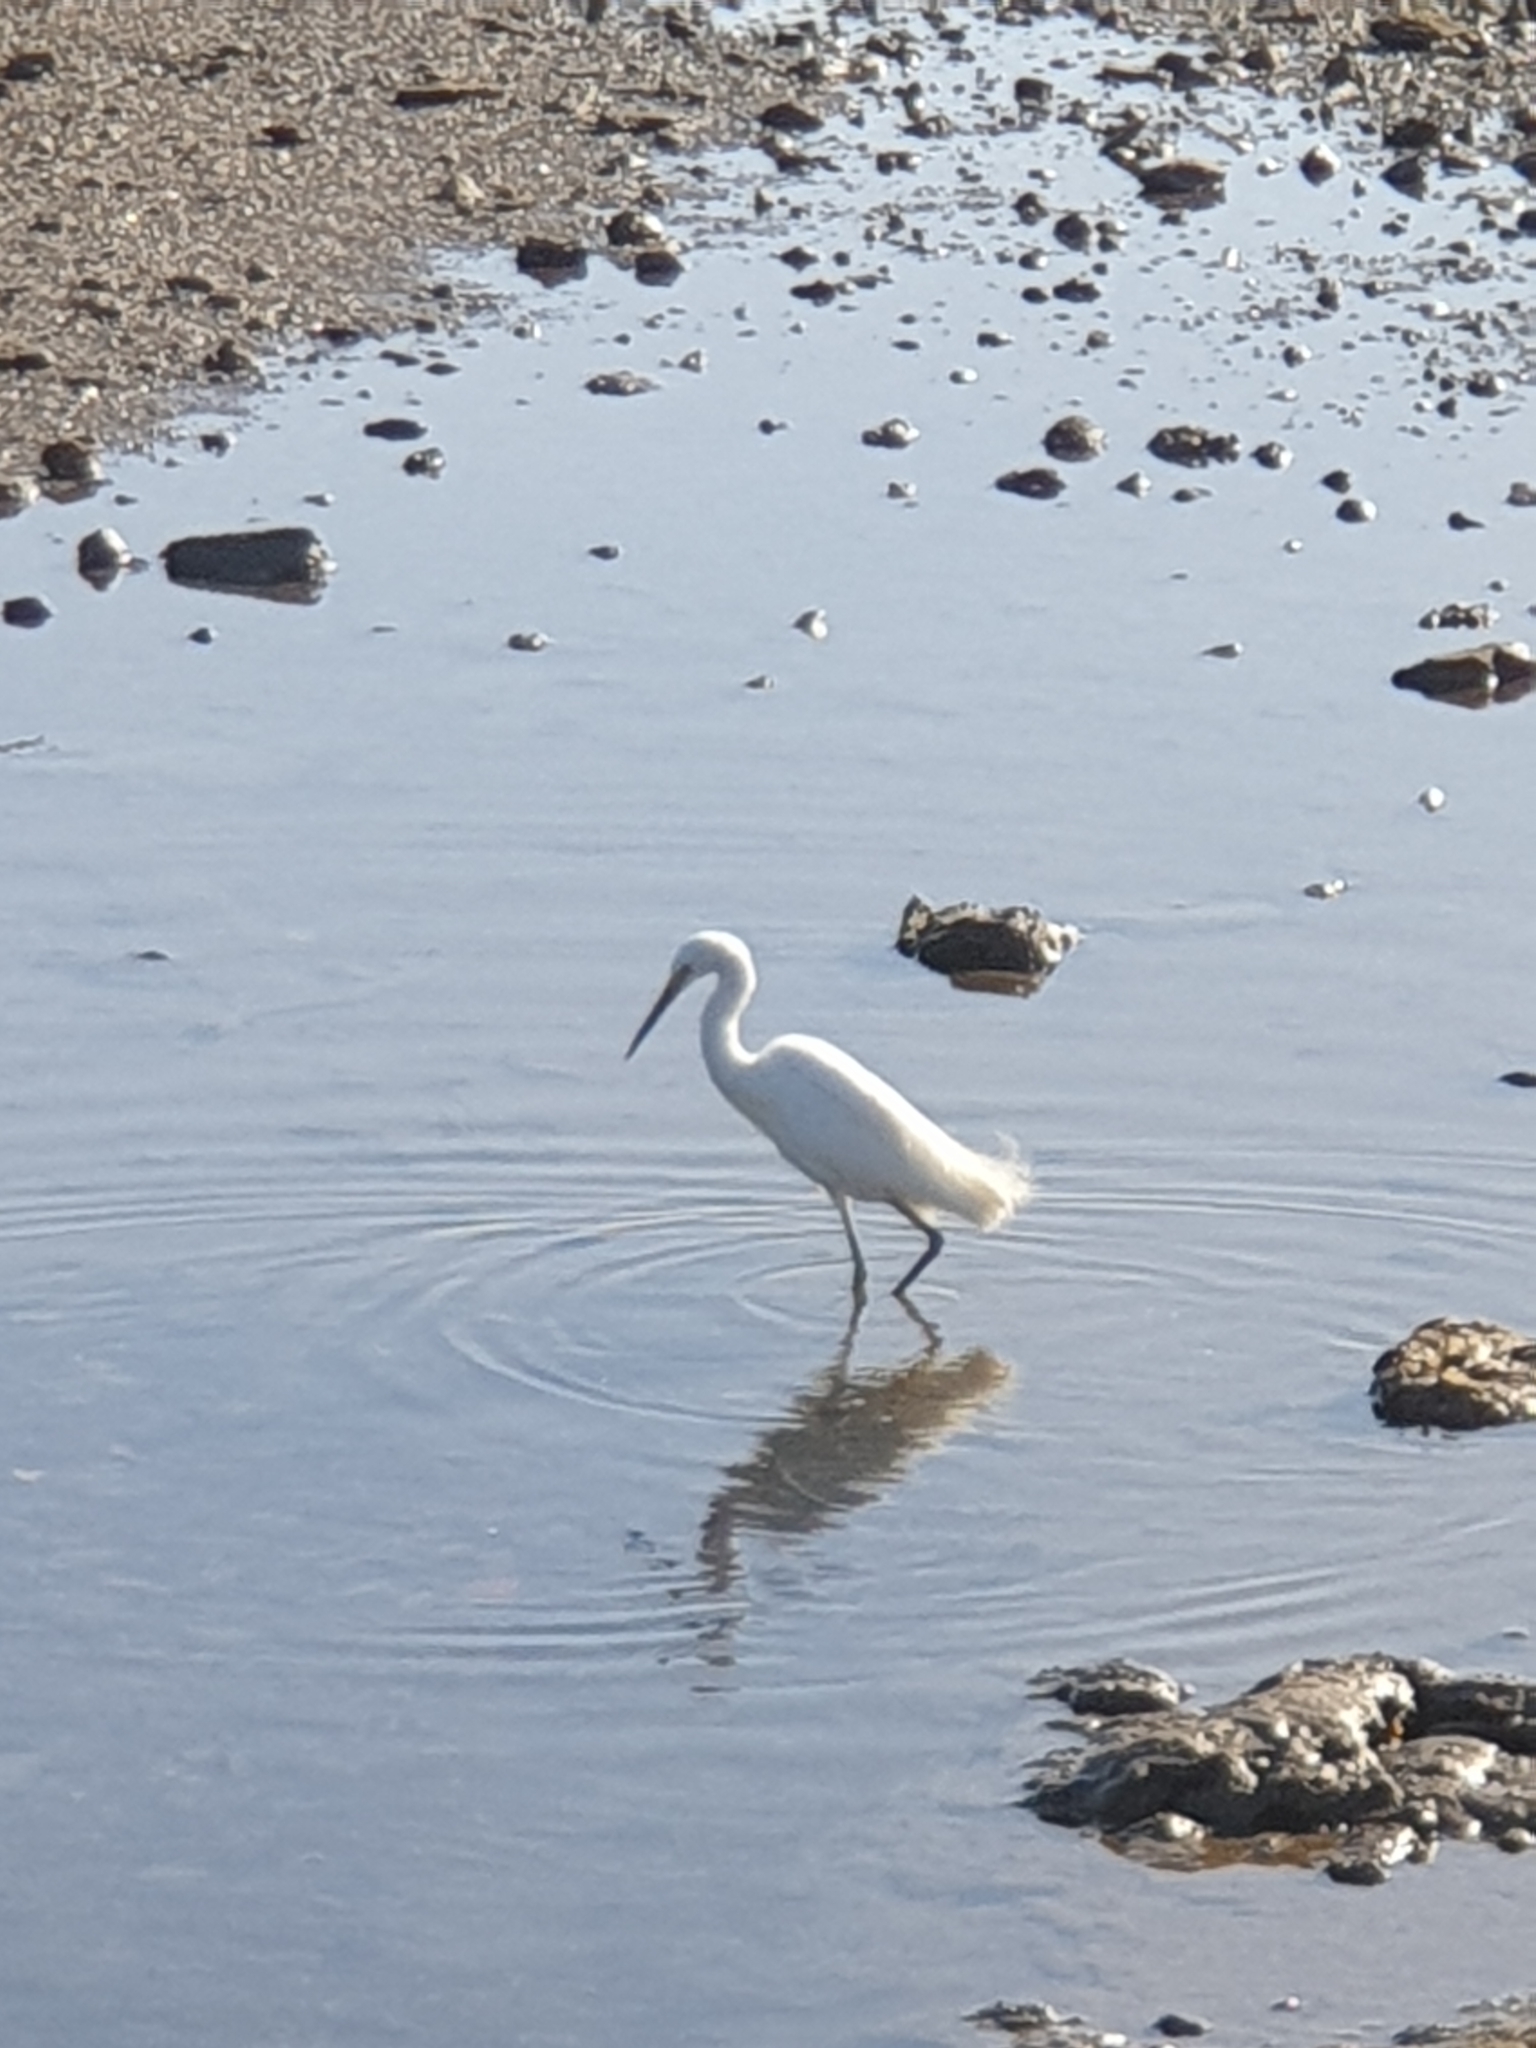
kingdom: Animalia
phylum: Chordata
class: Aves
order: Pelecaniformes
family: Ardeidae
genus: Egretta
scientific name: Egretta garzetta
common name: Little egret
